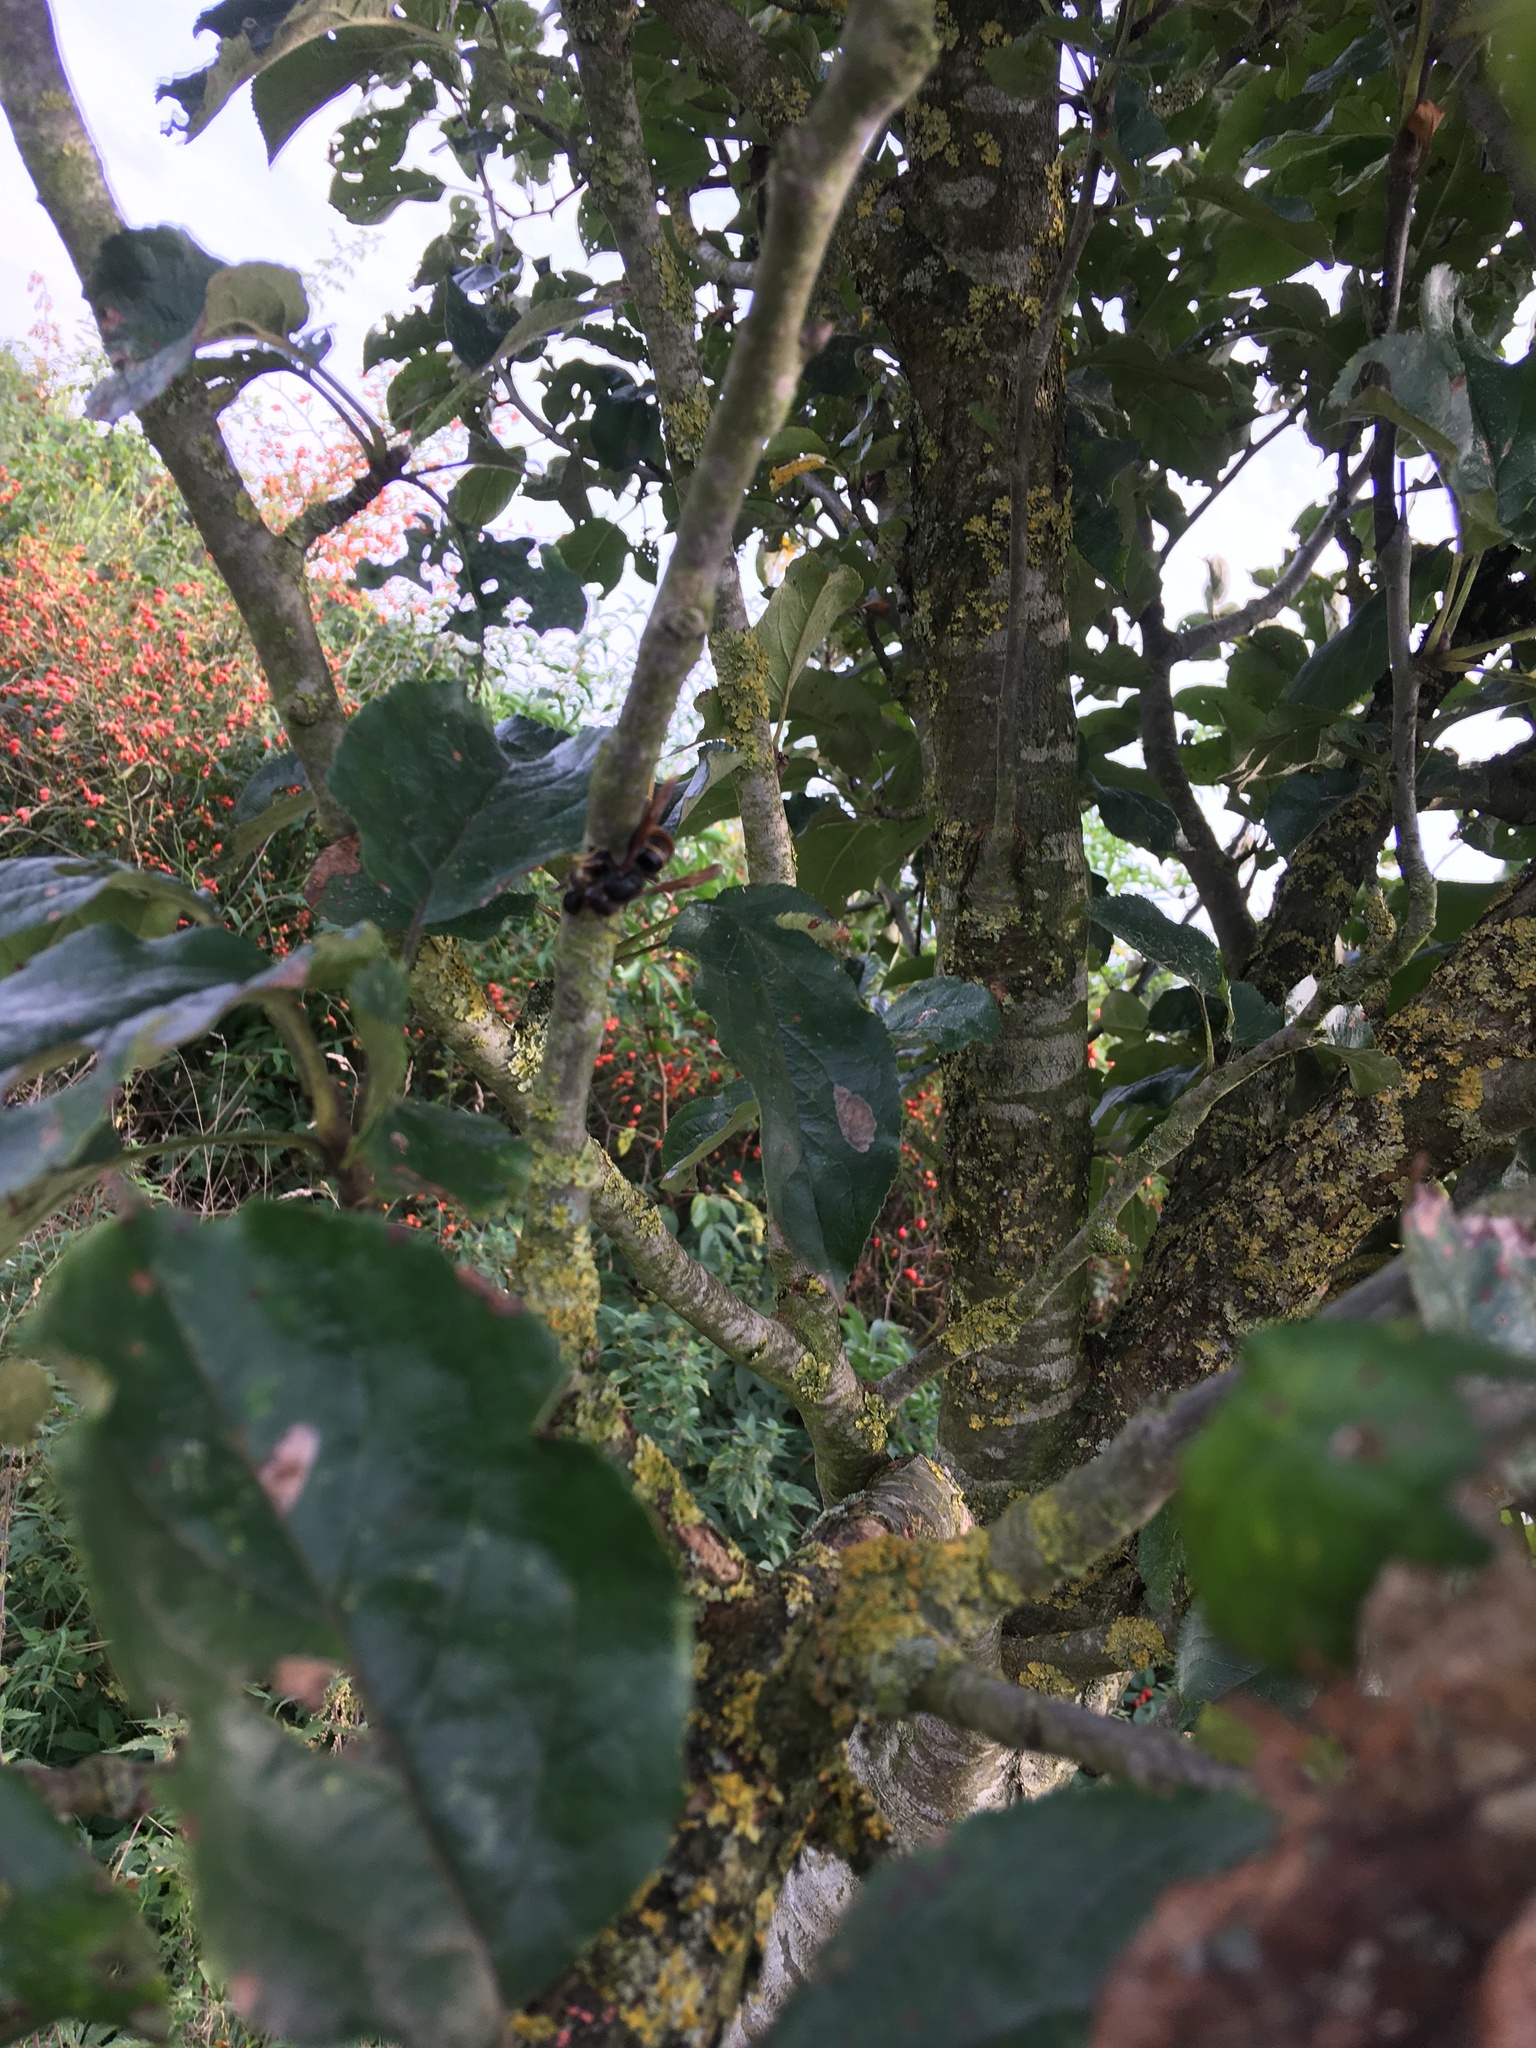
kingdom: Animalia
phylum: Arthropoda
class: Insecta
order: Hymenoptera
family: Vespidae
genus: Vespa
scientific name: Vespa velutina
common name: Asian hornet
